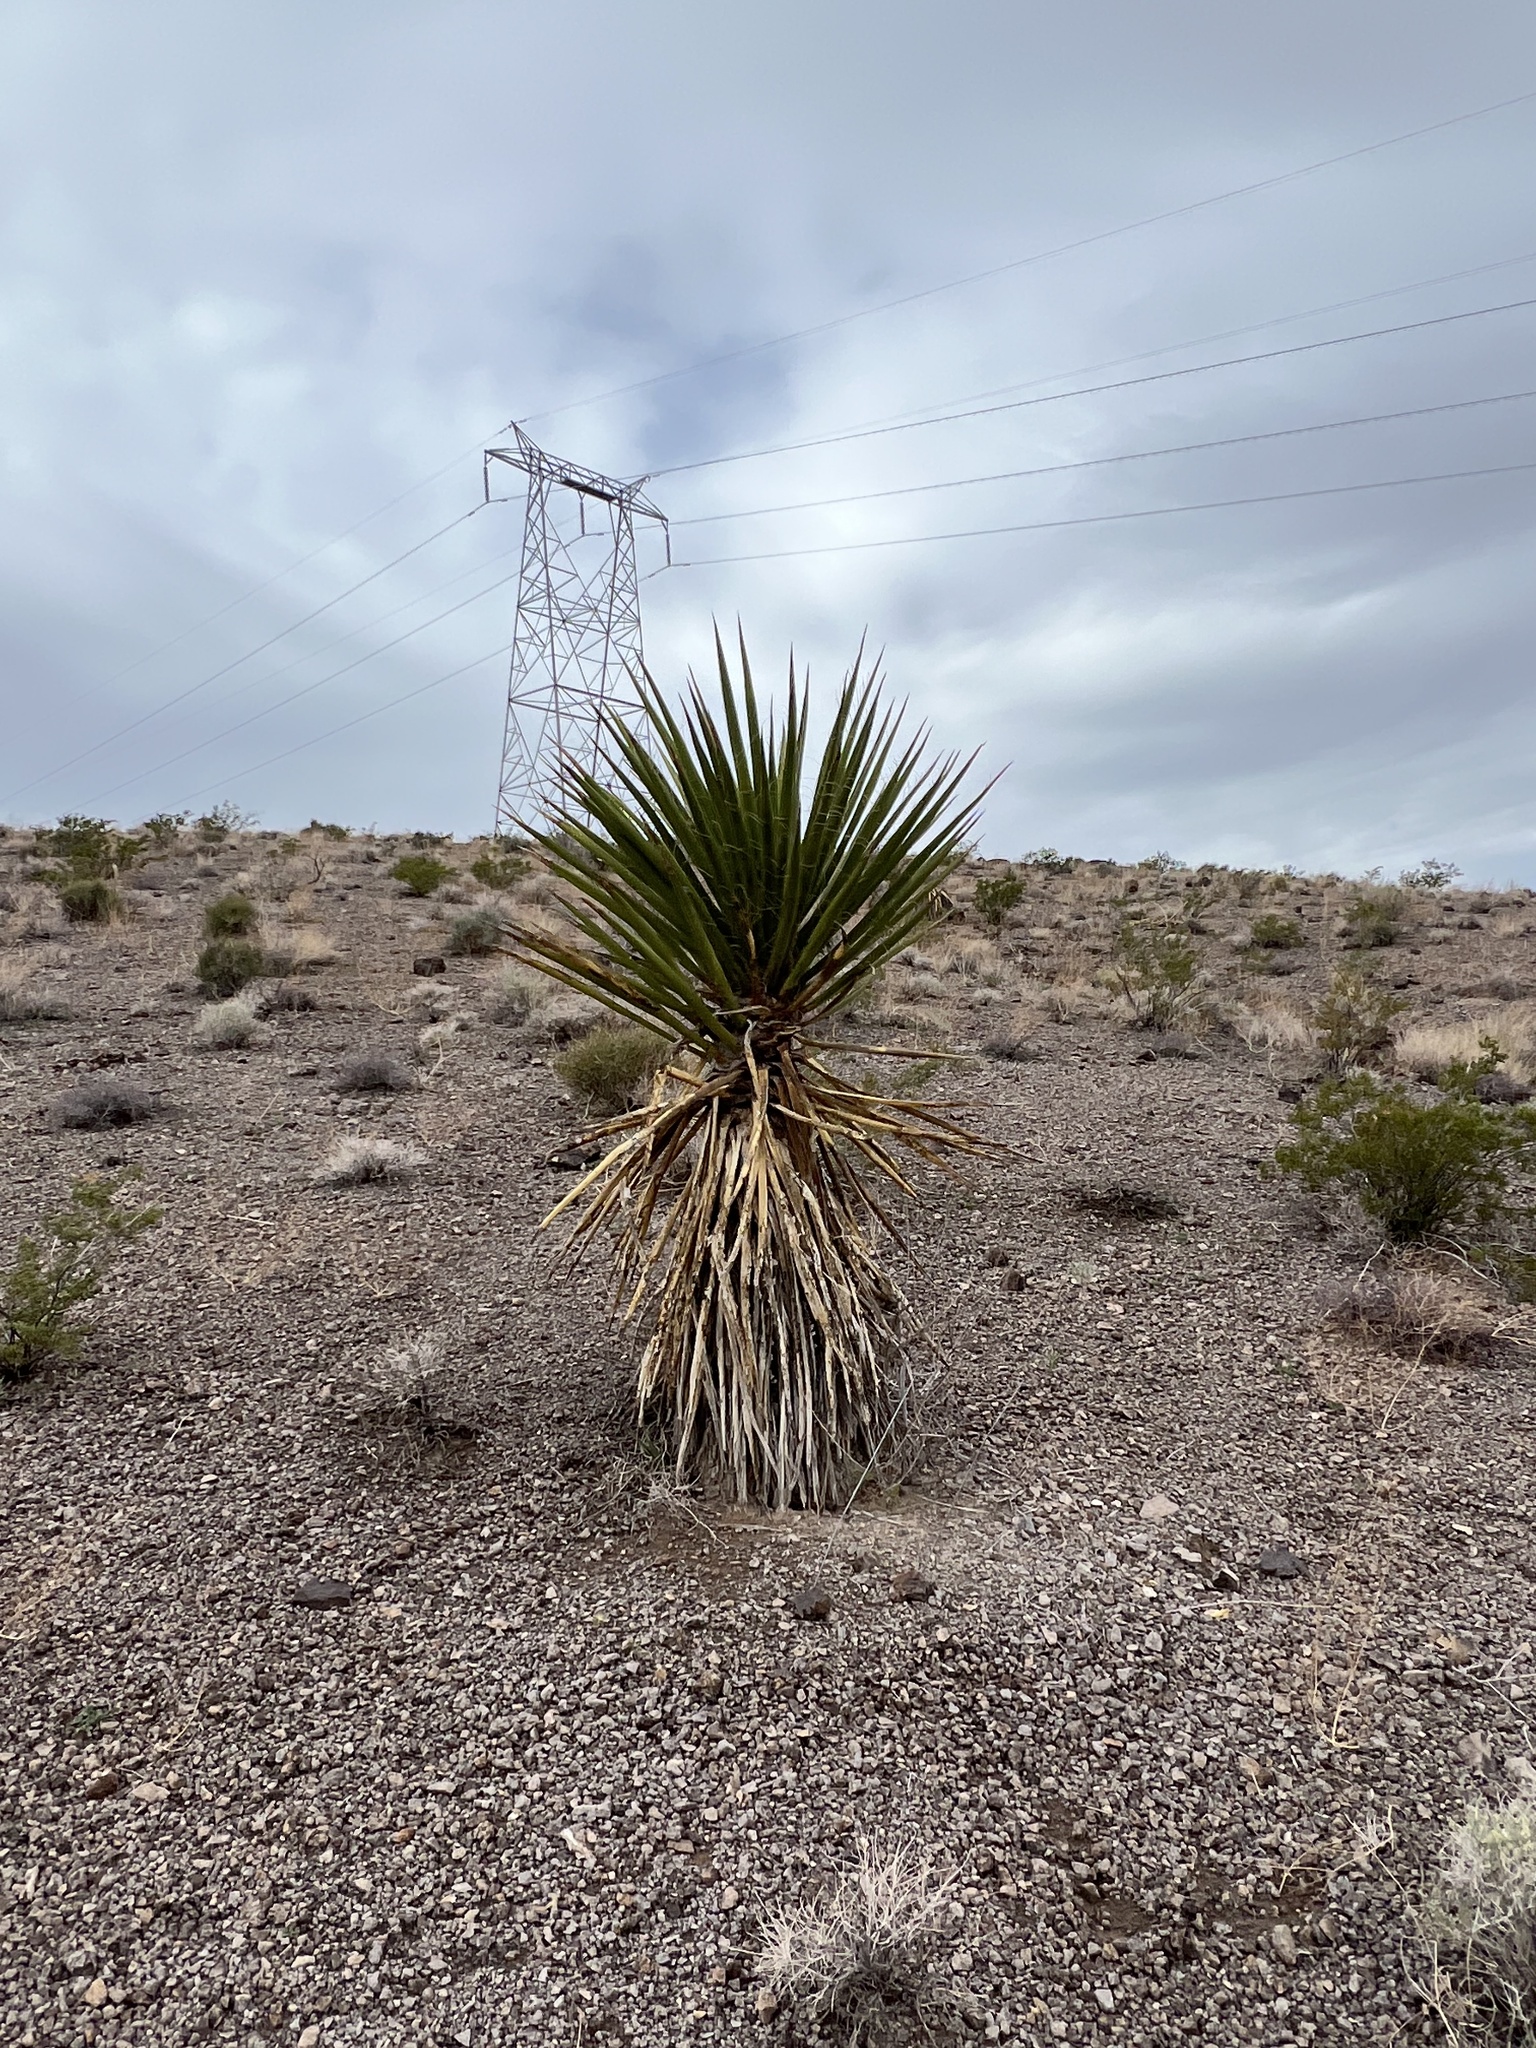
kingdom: Plantae
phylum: Tracheophyta
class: Liliopsida
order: Asparagales
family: Asparagaceae
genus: Yucca
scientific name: Yucca schidigera
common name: Mojave yucca
